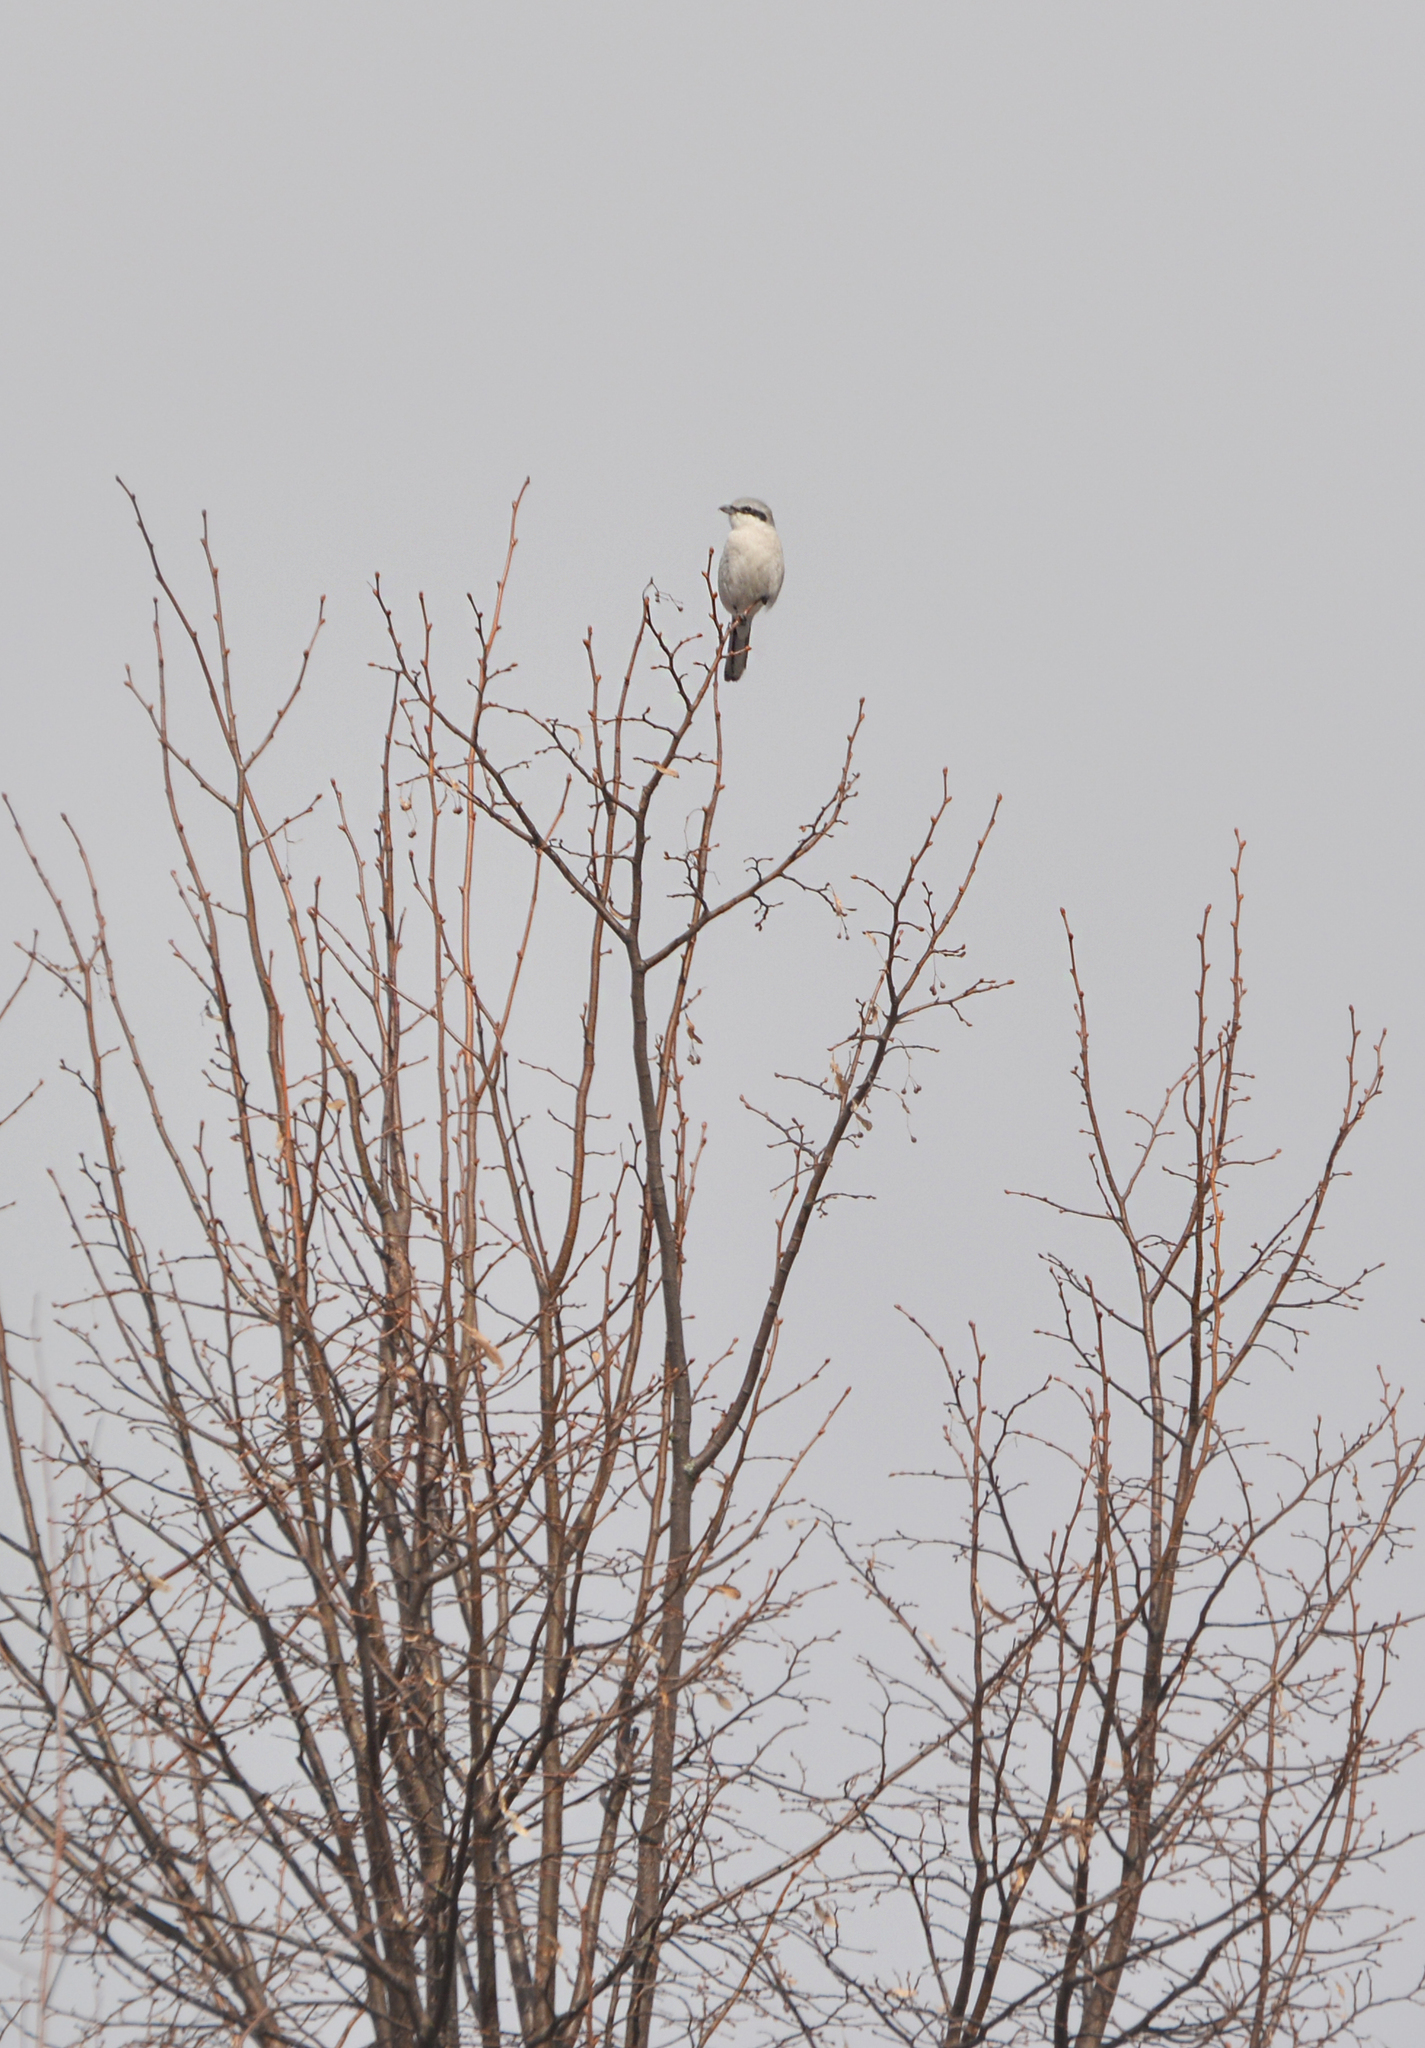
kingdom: Animalia
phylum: Chordata
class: Aves
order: Passeriformes
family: Laniidae
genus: Lanius
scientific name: Lanius excubitor
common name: Great grey shrike
